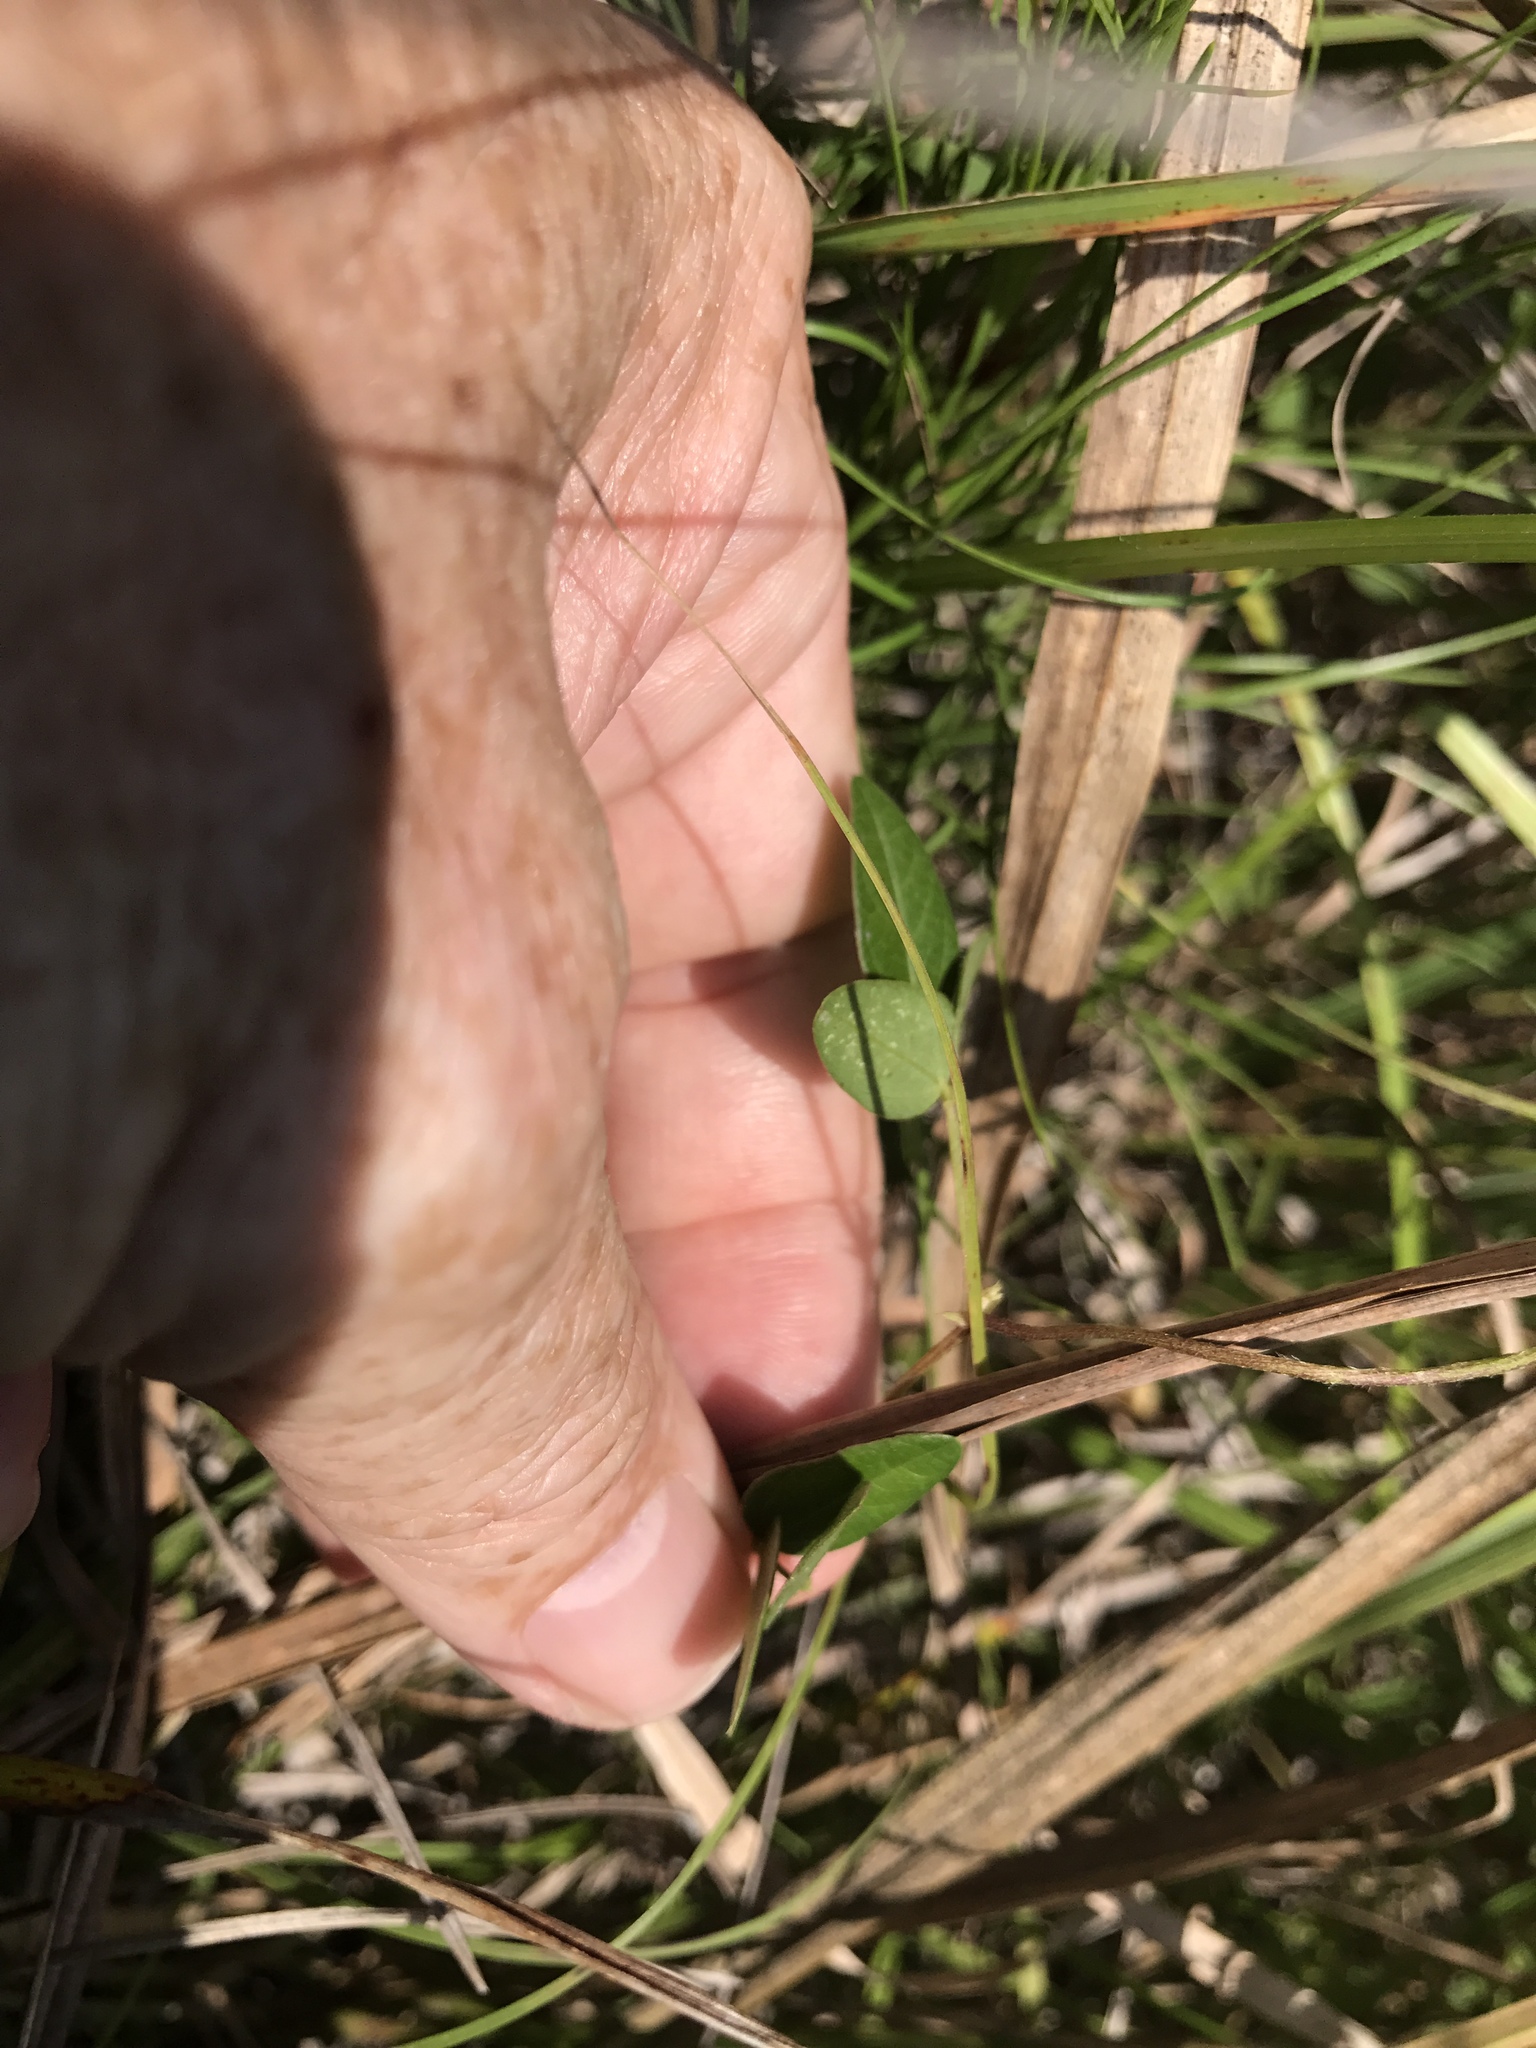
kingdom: Plantae
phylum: Tracheophyta
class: Magnoliopsida
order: Fabales
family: Fabaceae
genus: Strophostyles
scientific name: Strophostyles umbellata
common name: Perennial wild bean
